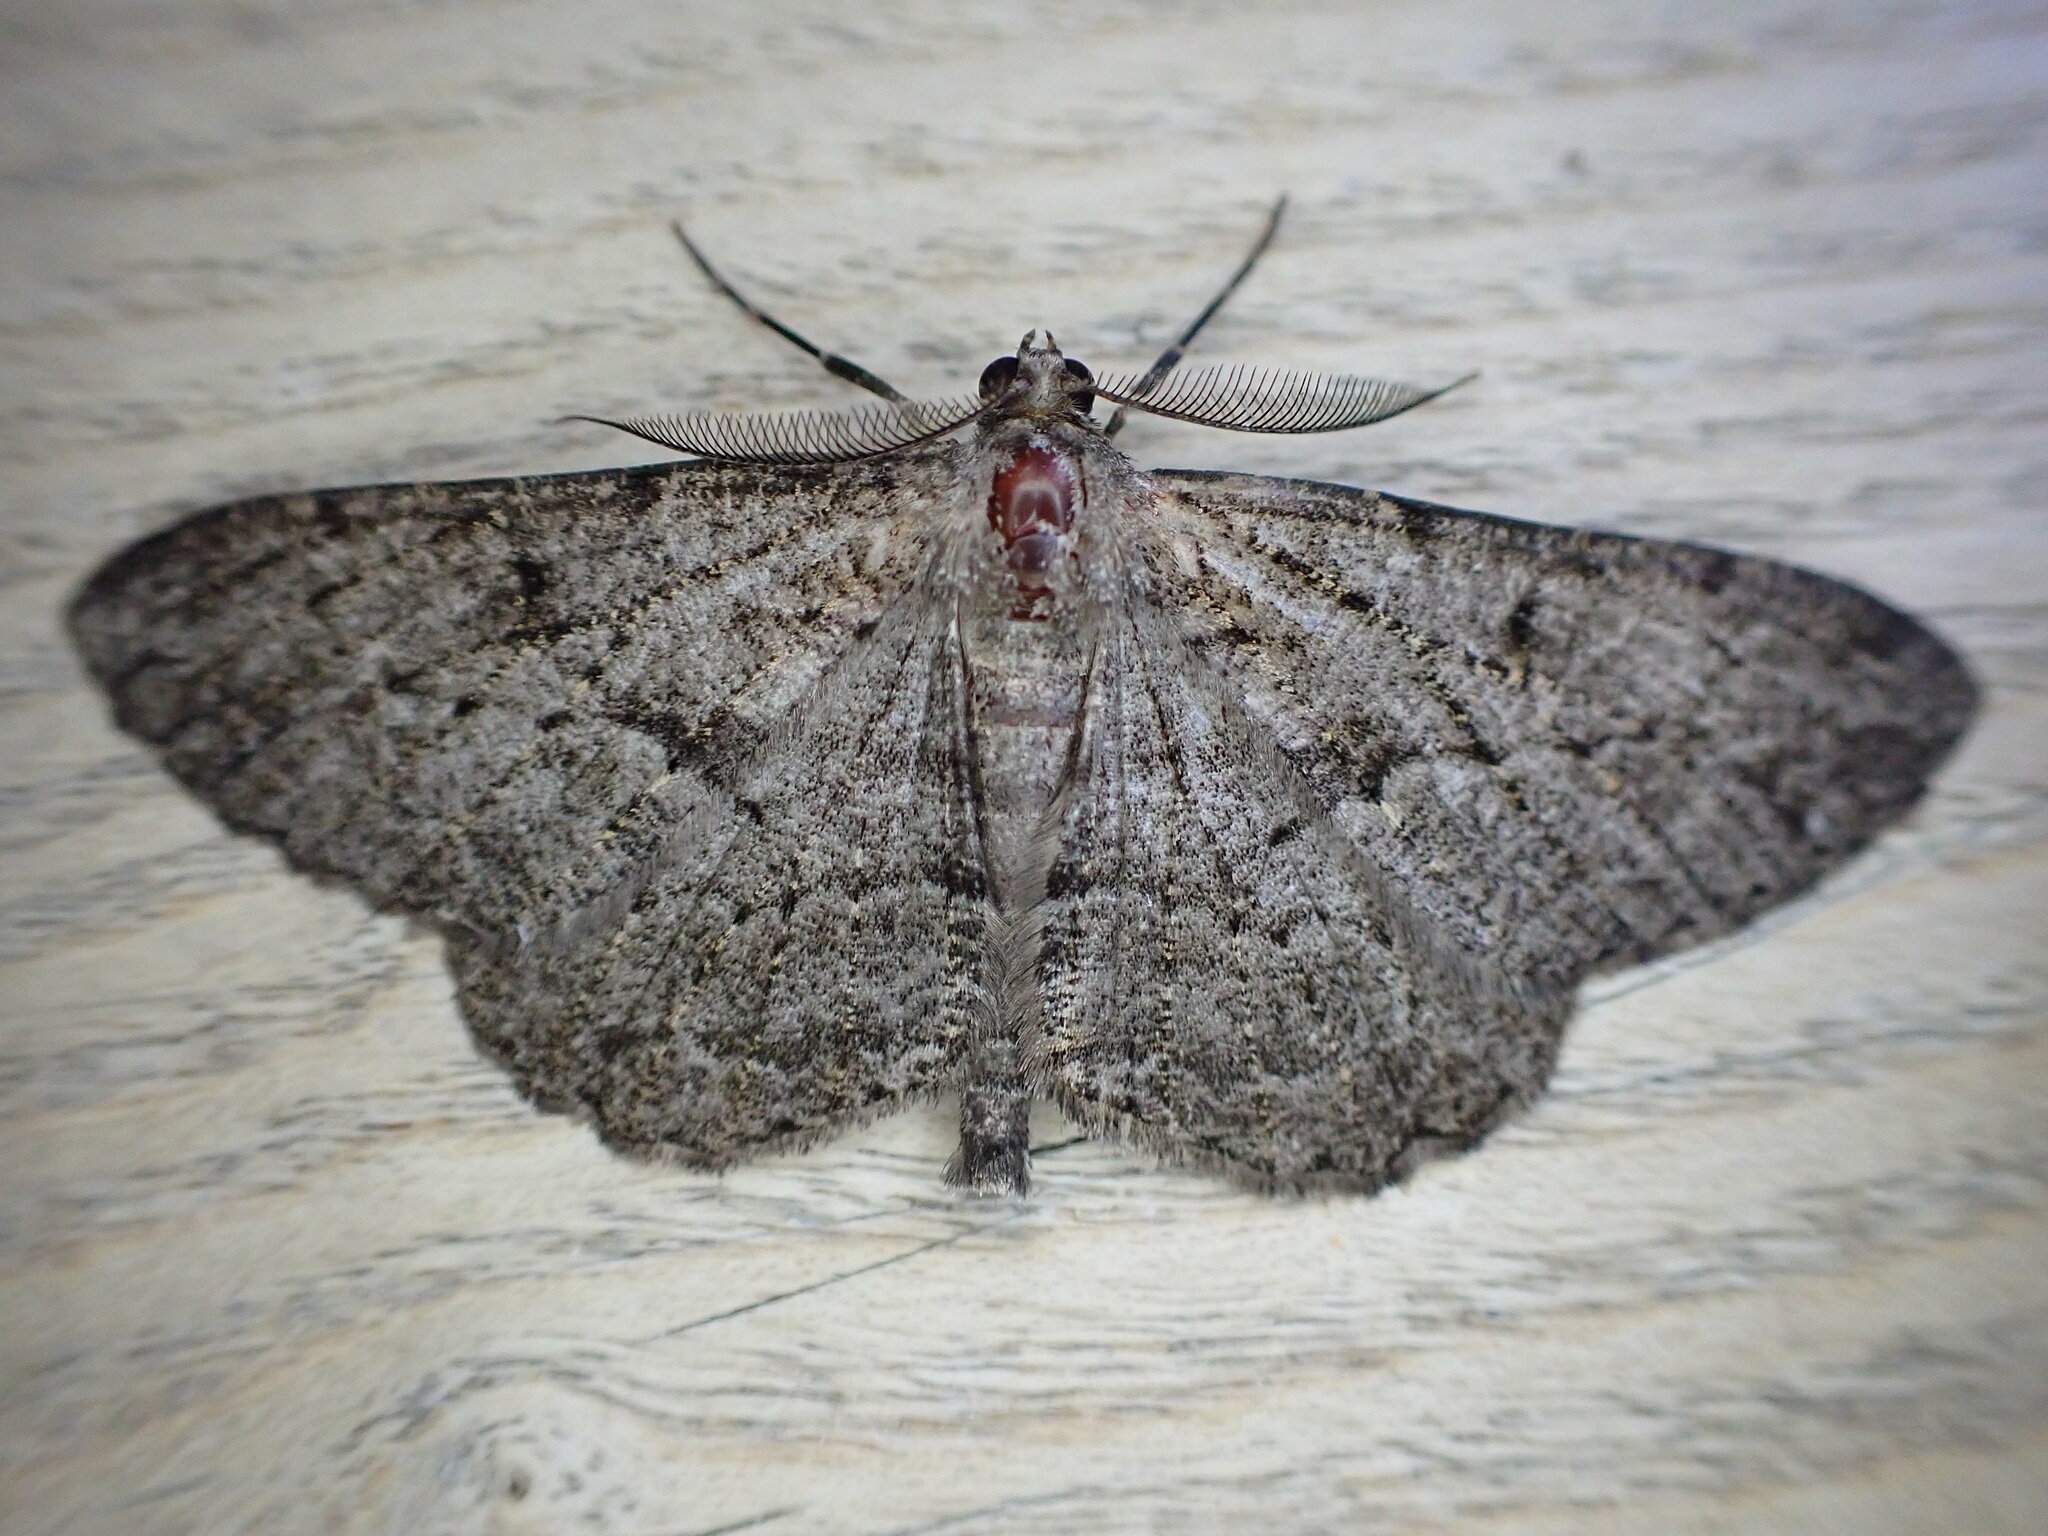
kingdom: Animalia
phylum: Arthropoda
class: Insecta
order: Lepidoptera
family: Geometridae
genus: Peribatodes
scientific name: Peribatodes rhomboidaria
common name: Willow beauty
